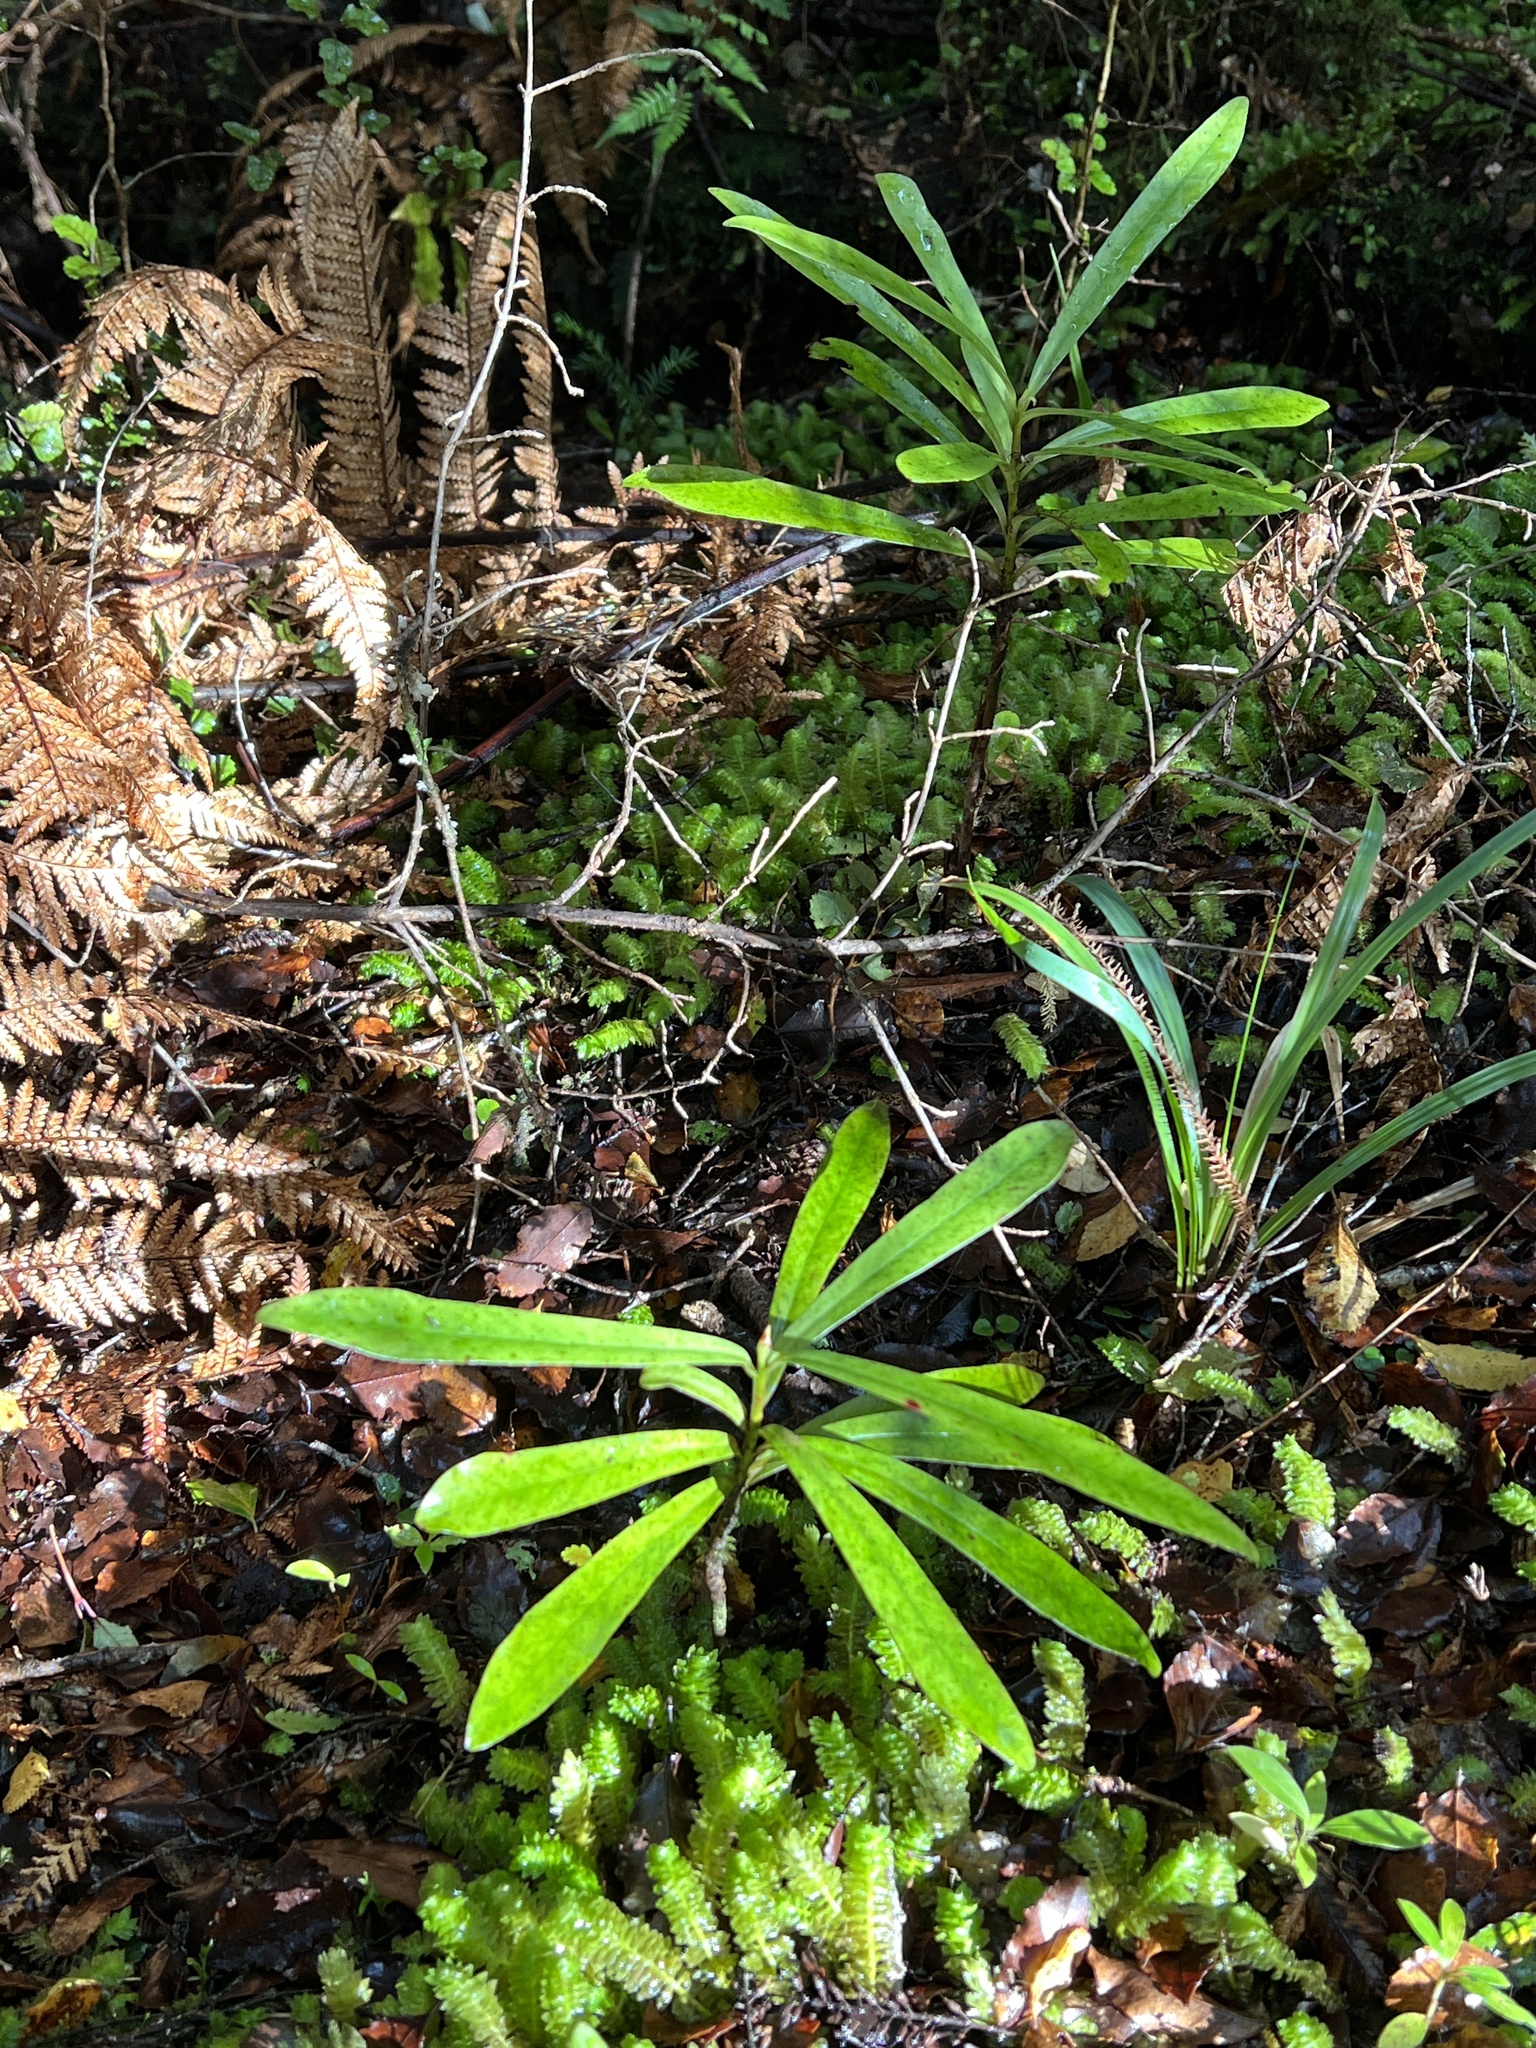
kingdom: Plantae
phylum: Tracheophyta
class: Magnoliopsida
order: Ericales
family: Primulaceae
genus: Myrsine
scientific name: Myrsine salicina
